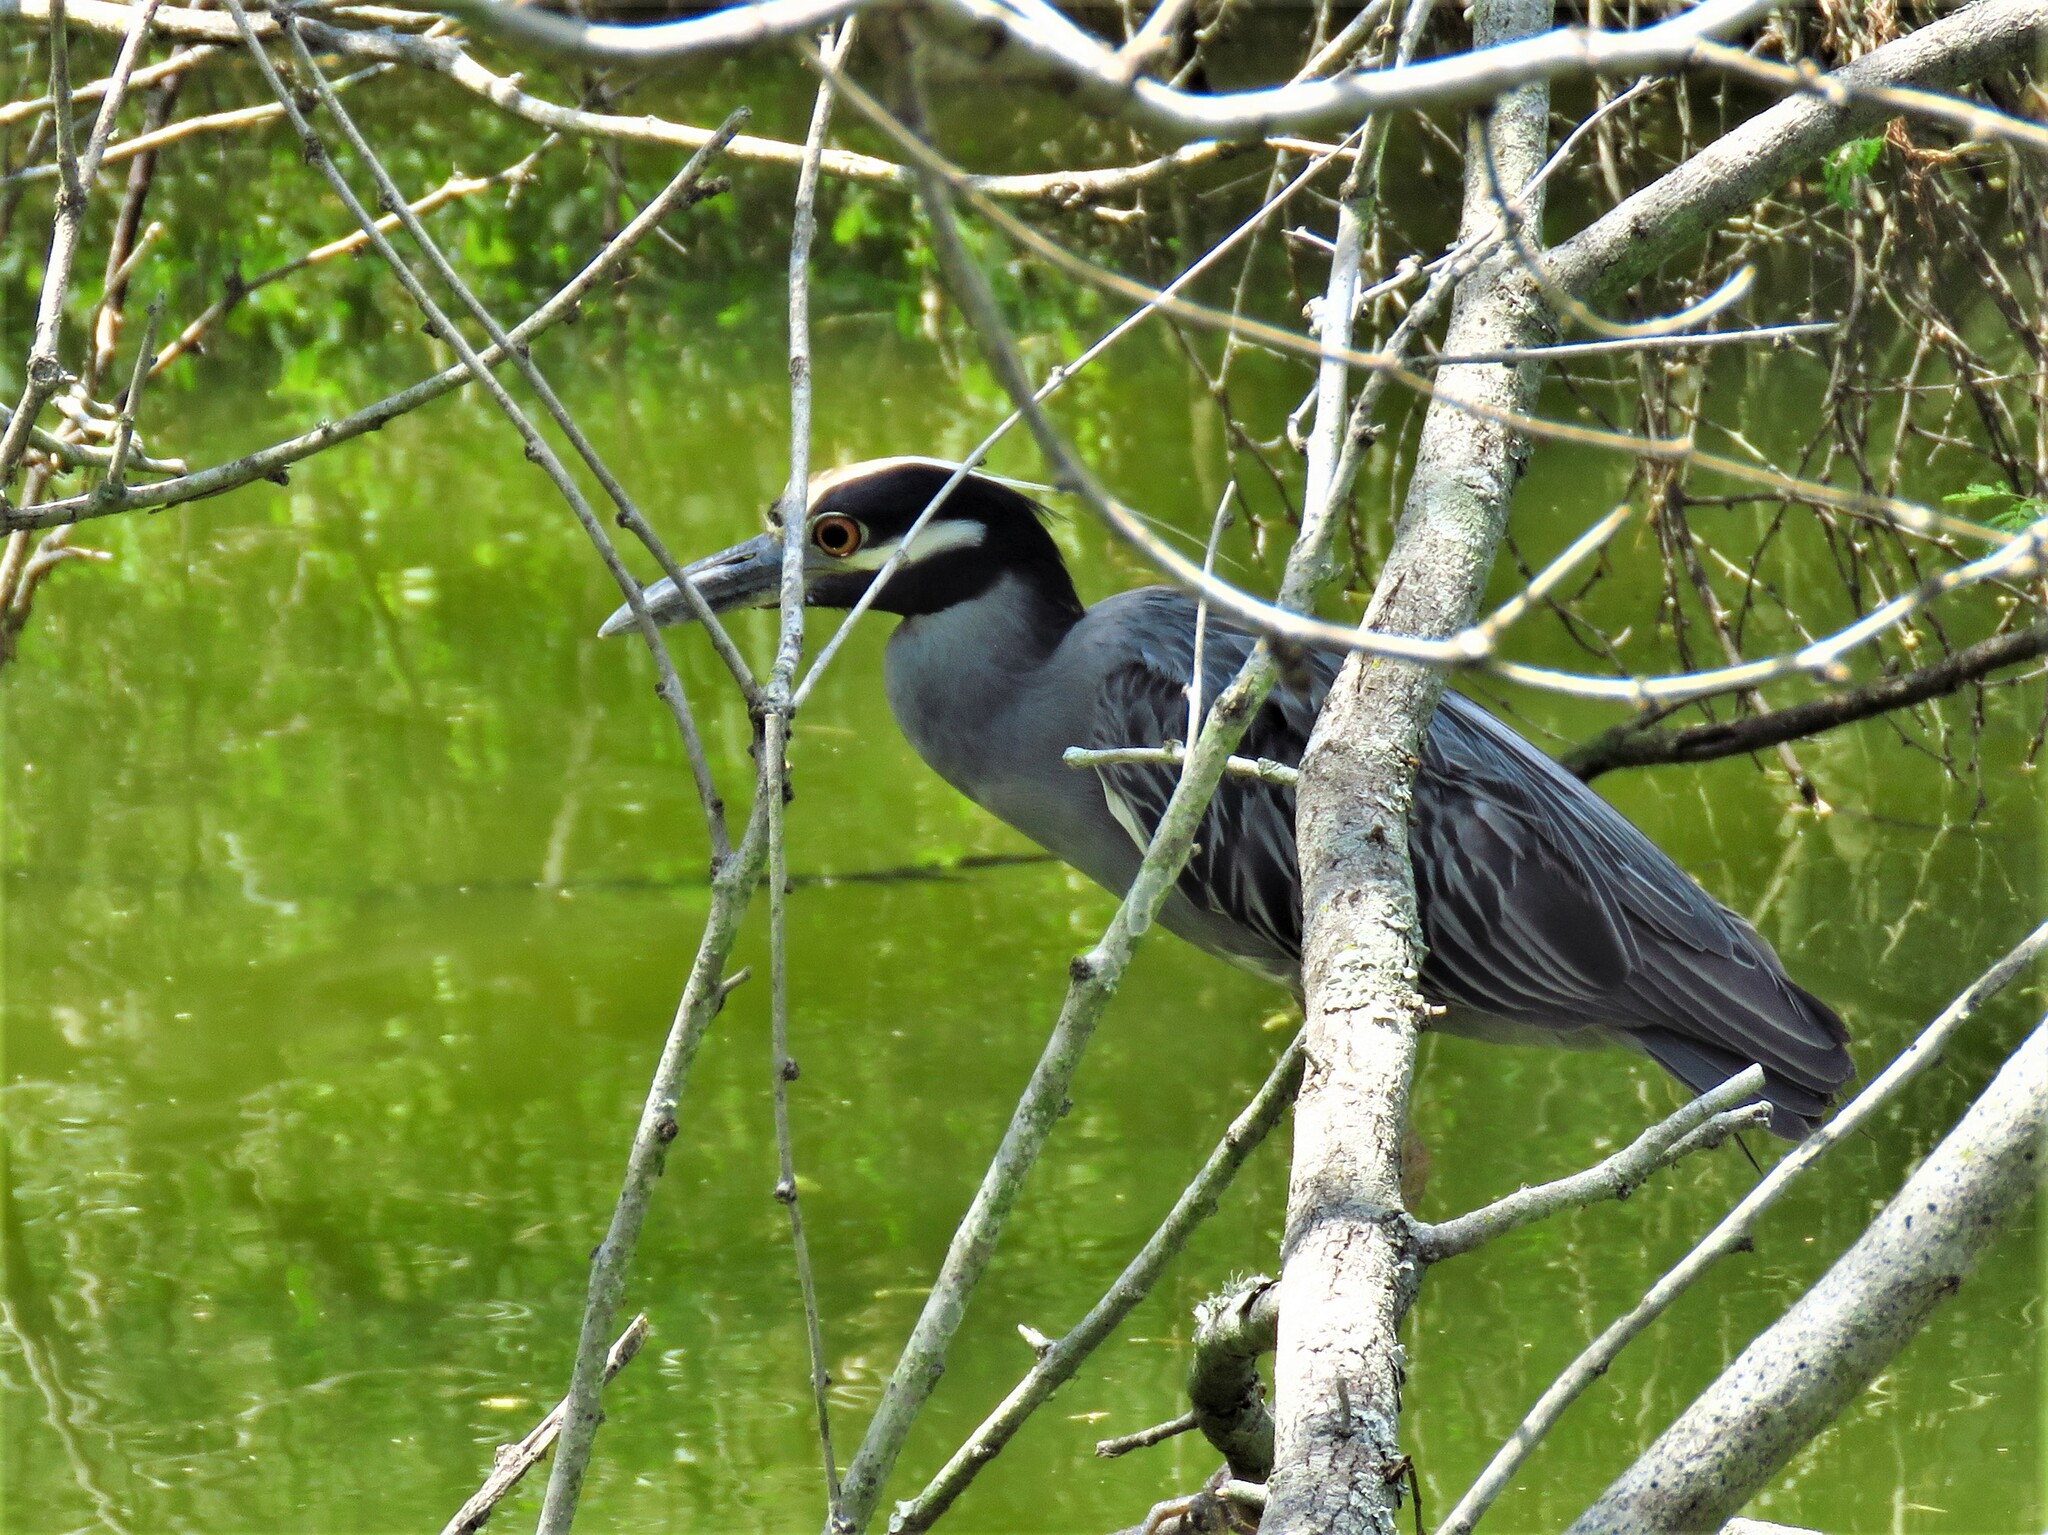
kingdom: Animalia
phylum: Chordata
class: Aves
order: Pelecaniformes
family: Ardeidae
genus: Nyctanassa
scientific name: Nyctanassa violacea
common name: Yellow-crowned night heron
